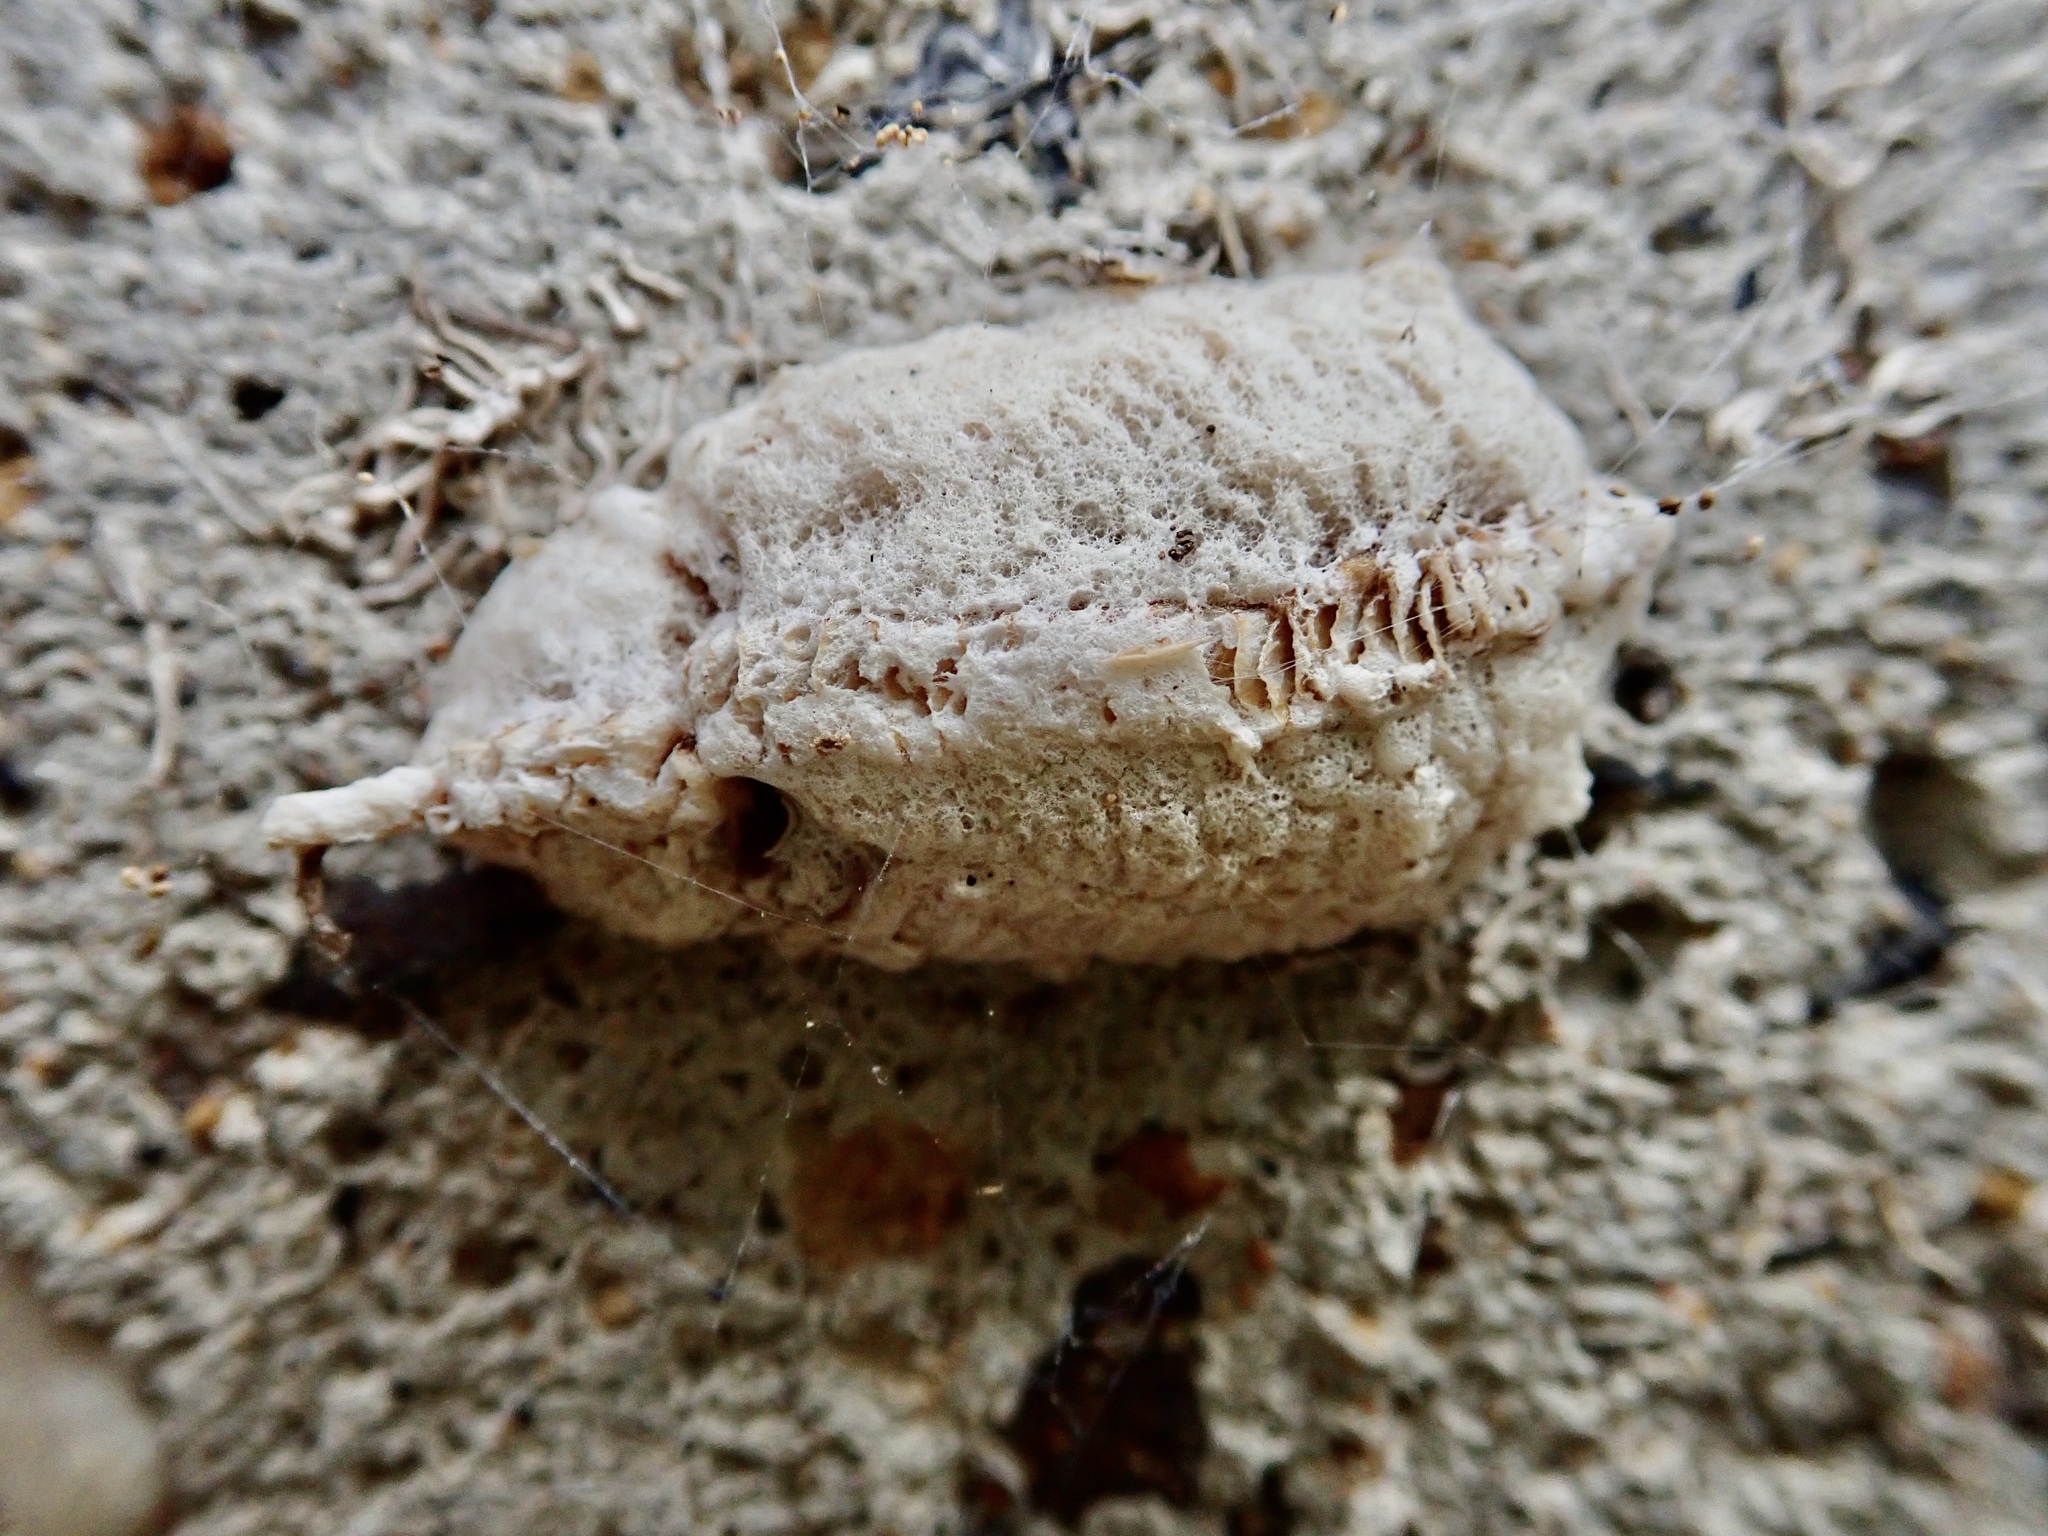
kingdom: Animalia
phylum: Arthropoda
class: Insecta
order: Mantodea
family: Miomantidae
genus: Miomantis
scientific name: Miomantis caffra
